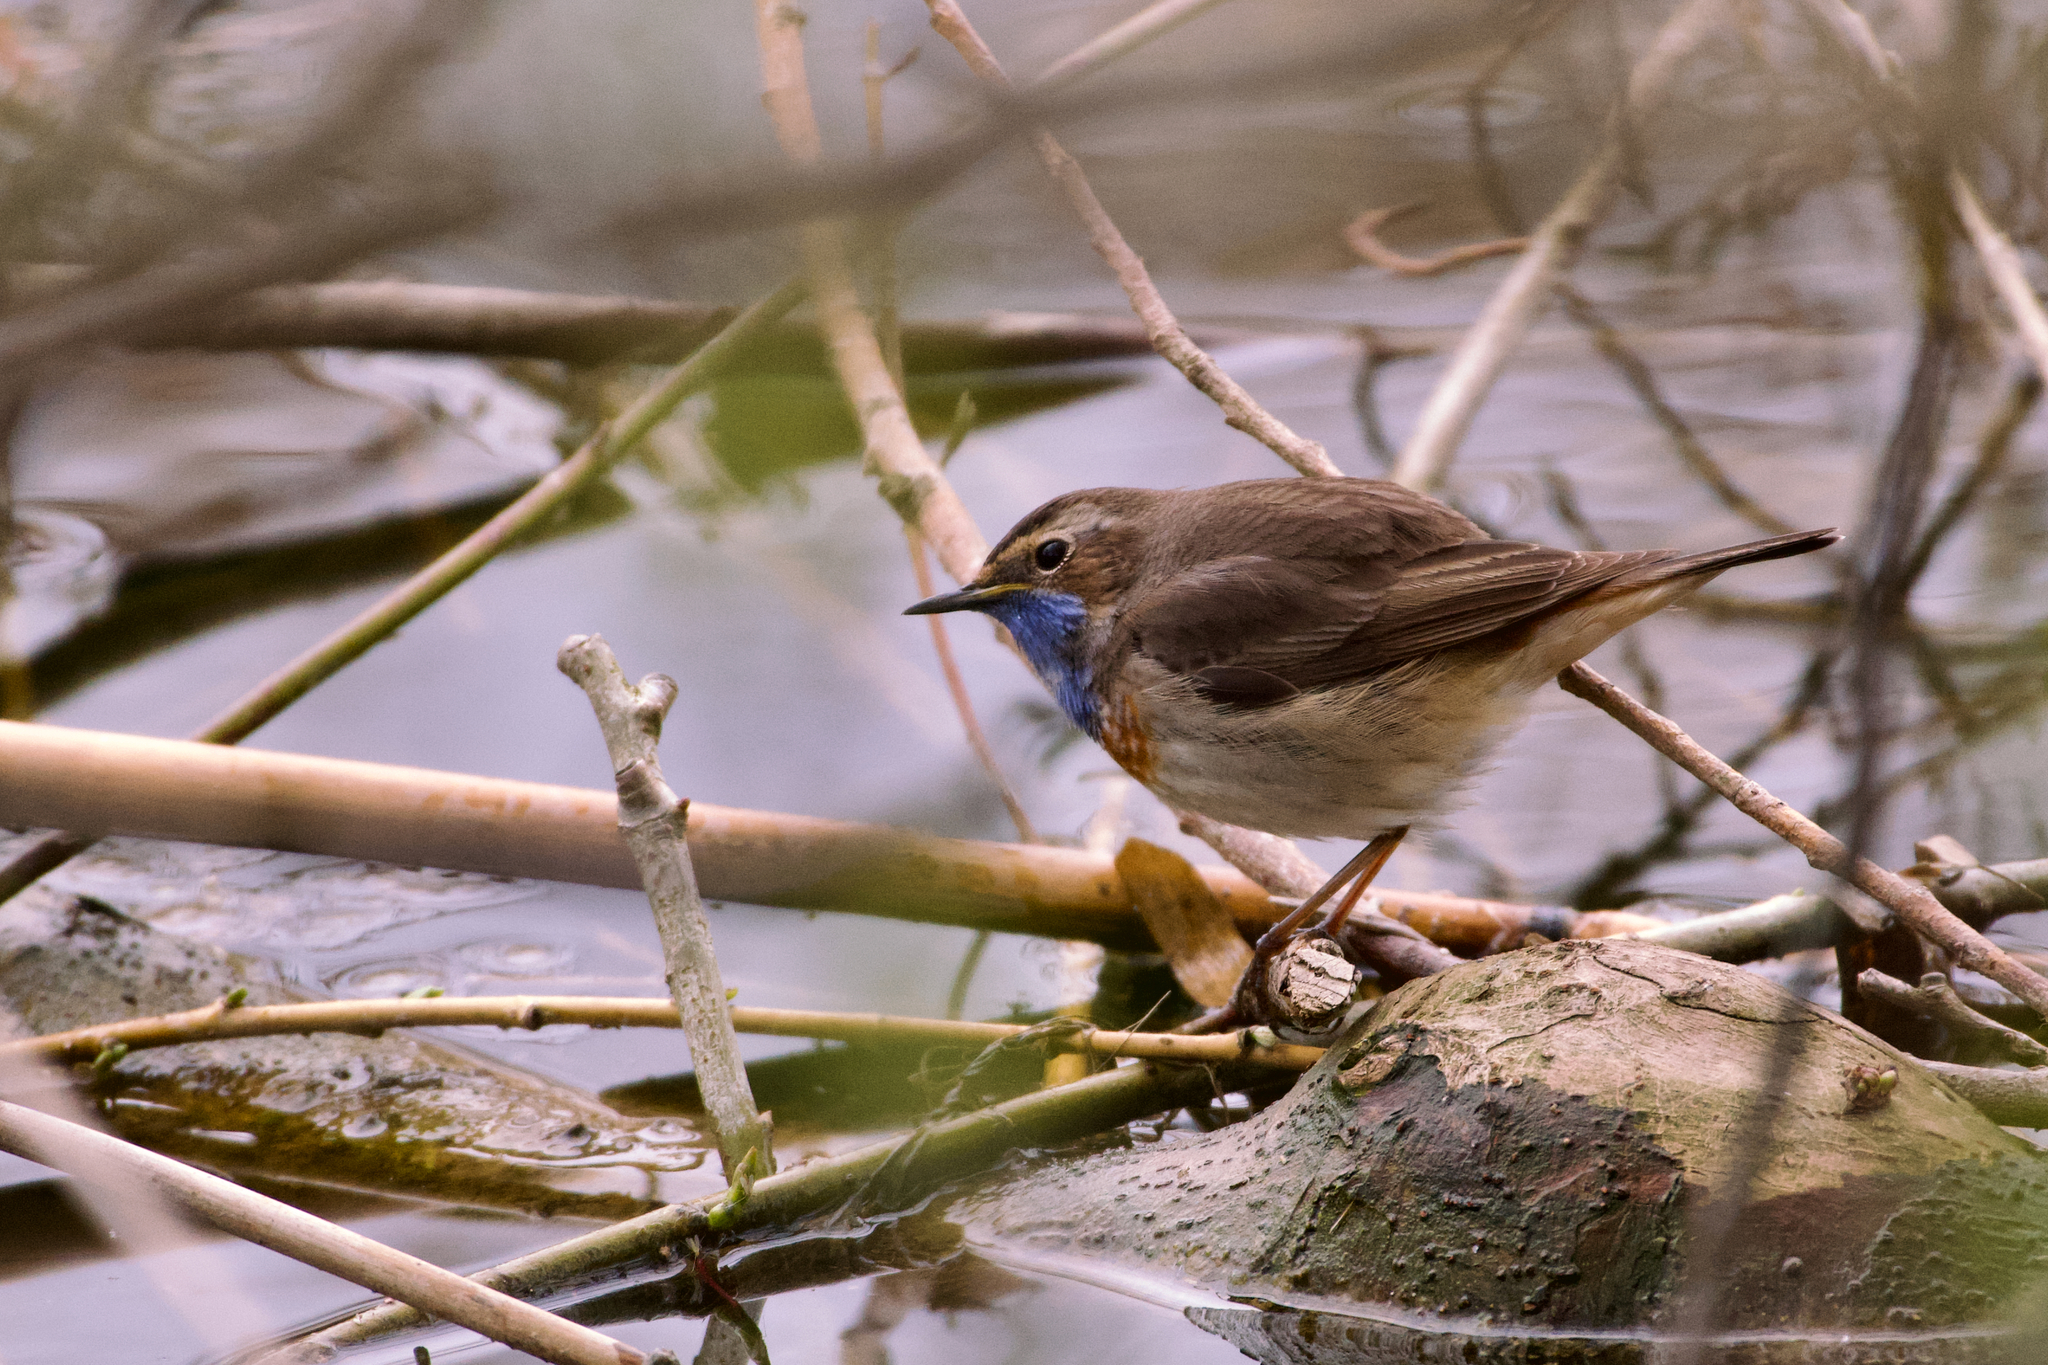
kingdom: Animalia
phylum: Chordata
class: Aves
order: Passeriformes
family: Muscicapidae
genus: Luscinia
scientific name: Luscinia svecica
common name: Bluethroat
